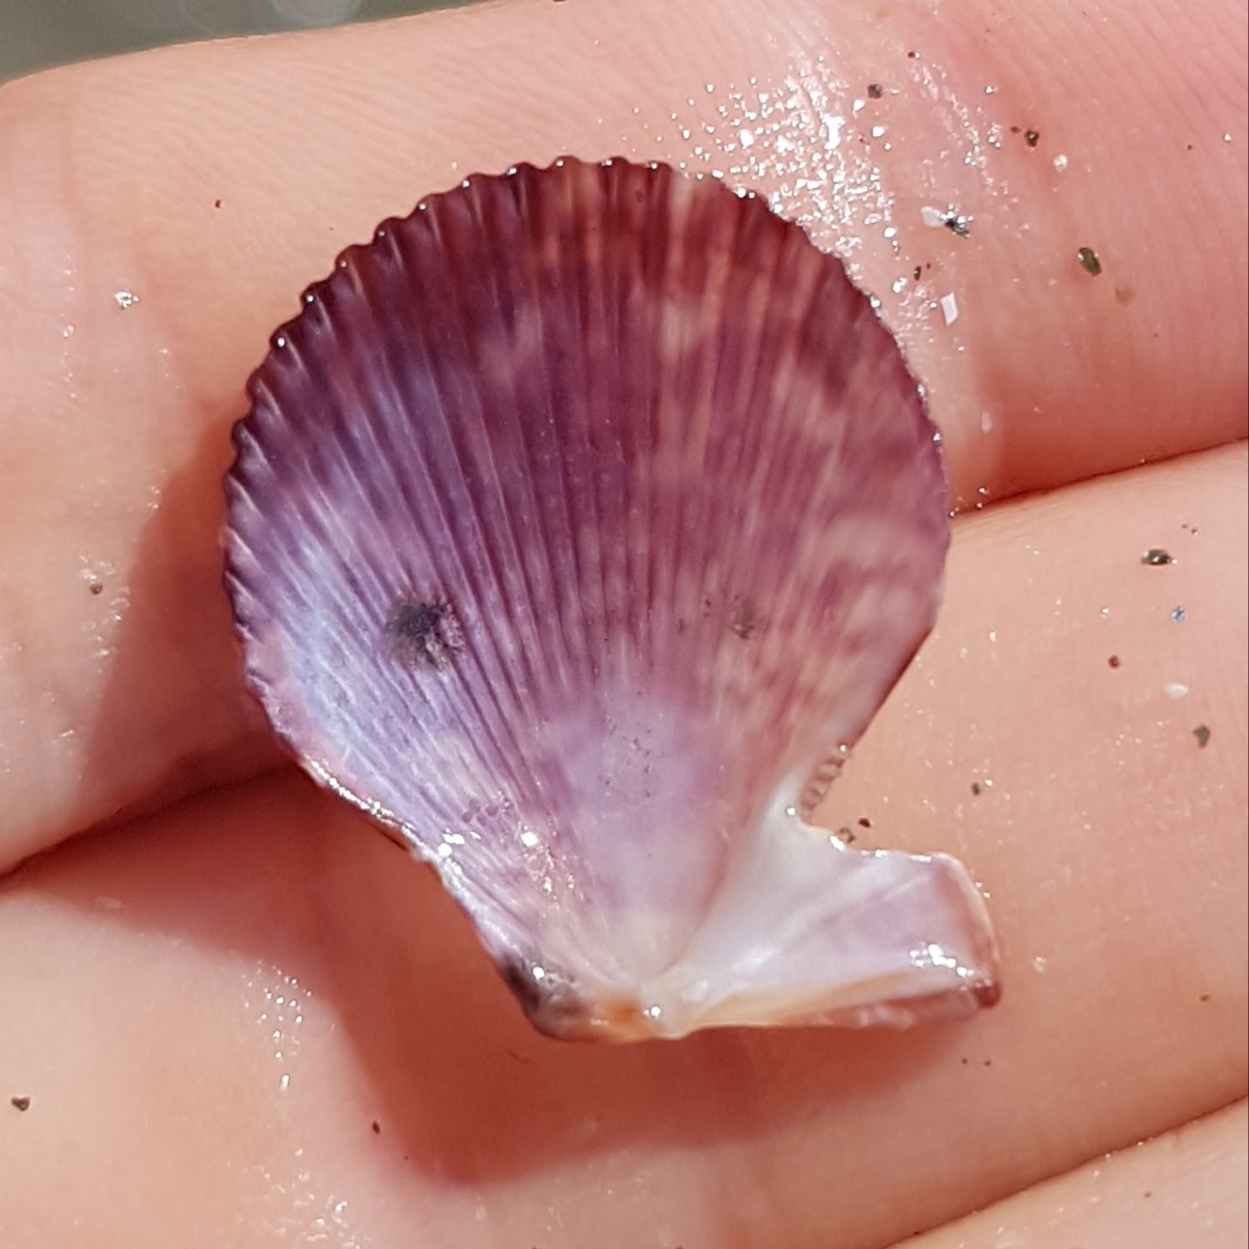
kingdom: Animalia
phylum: Mollusca
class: Bivalvia
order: Pectinida
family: Pectinidae
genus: Mimachlamys
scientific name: Mimachlamys varia
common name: Variegated scallop
